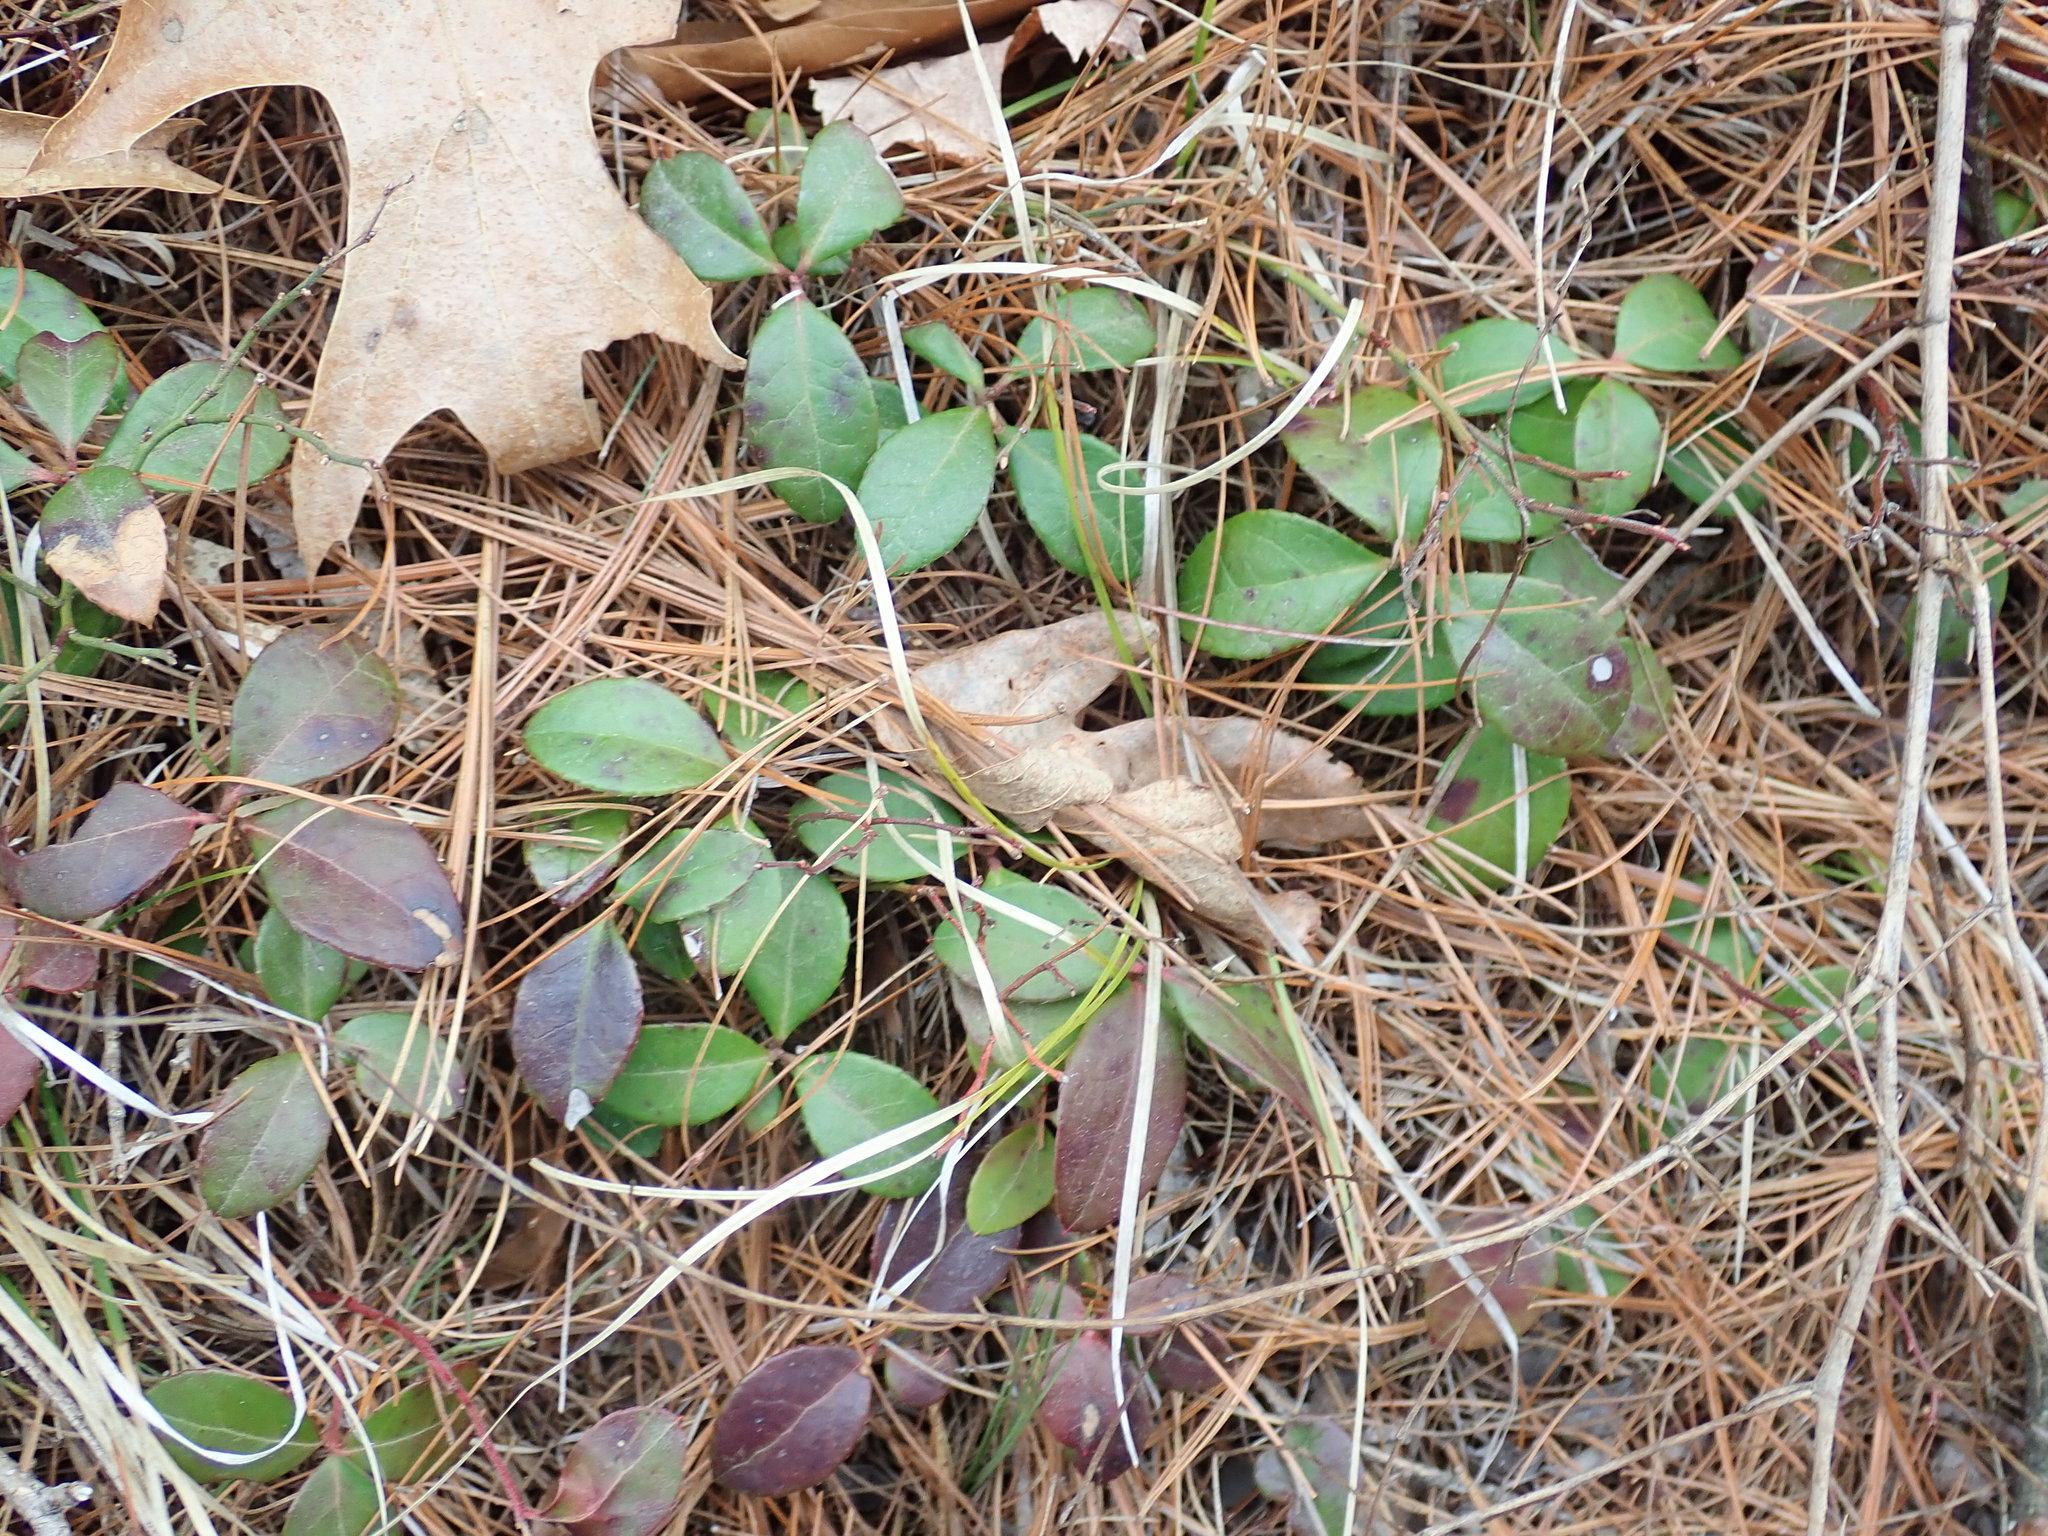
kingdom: Plantae
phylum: Tracheophyta
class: Magnoliopsida
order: Ericales
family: Ericaceae
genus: Gaultheria
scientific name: Gaultheria procumbens
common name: Checkerberry
